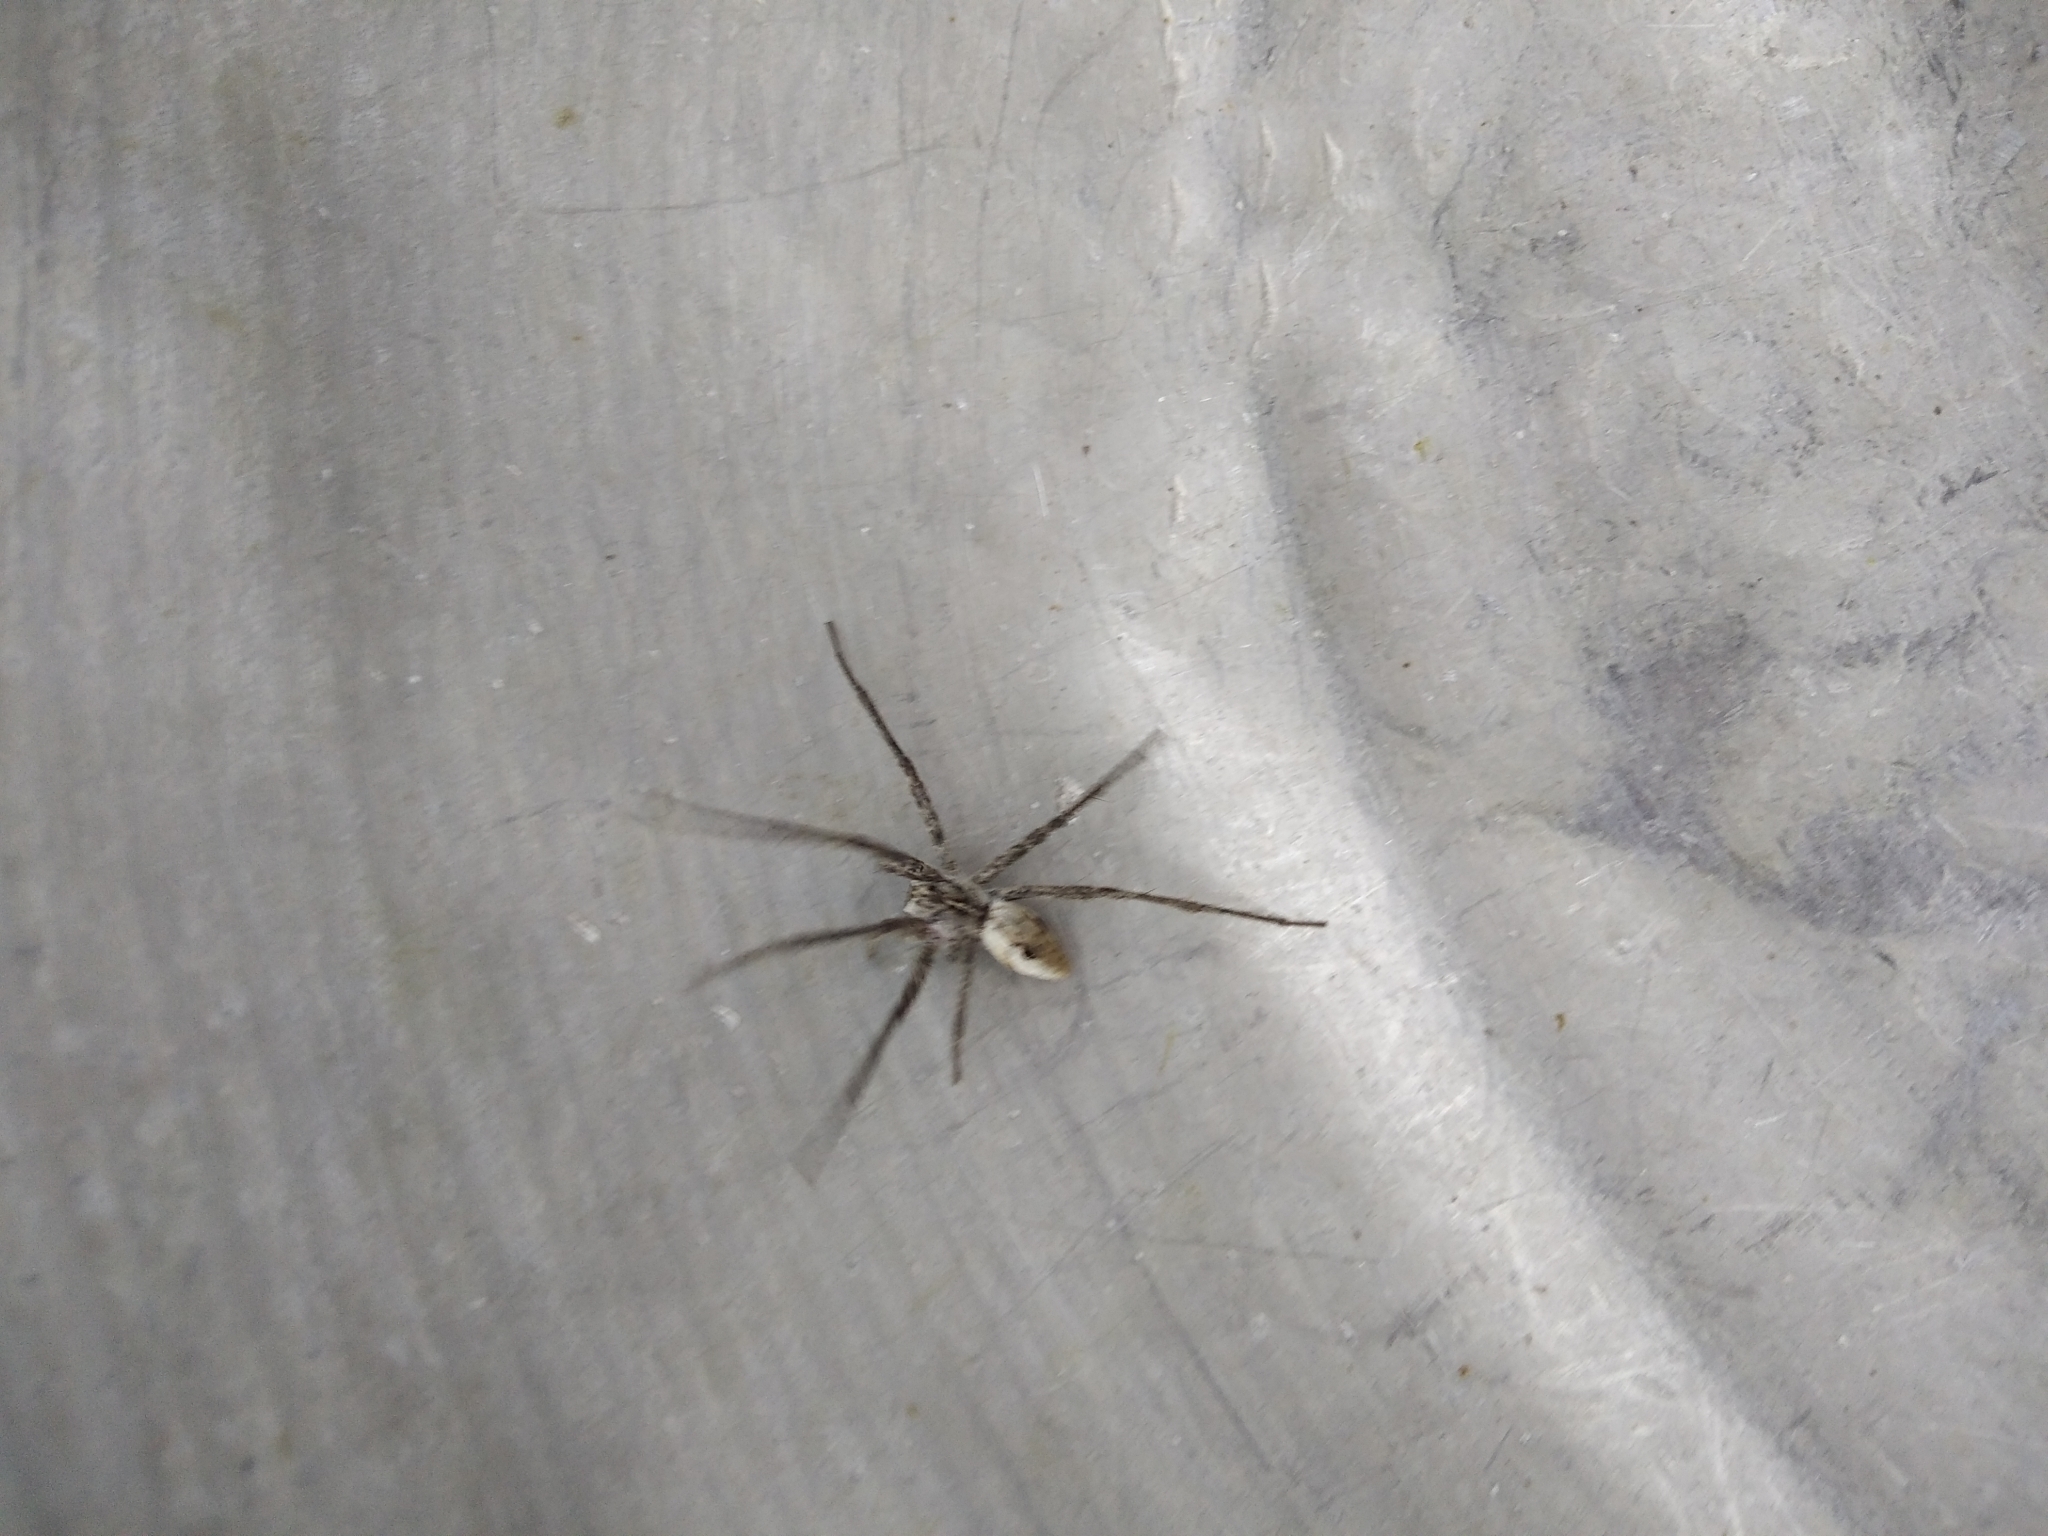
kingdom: Animalia
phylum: Arthropoda
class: Arachnida
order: Araneae
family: Pisauridae
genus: Pisaura
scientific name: Pisaura mirabilis
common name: Tent spider
